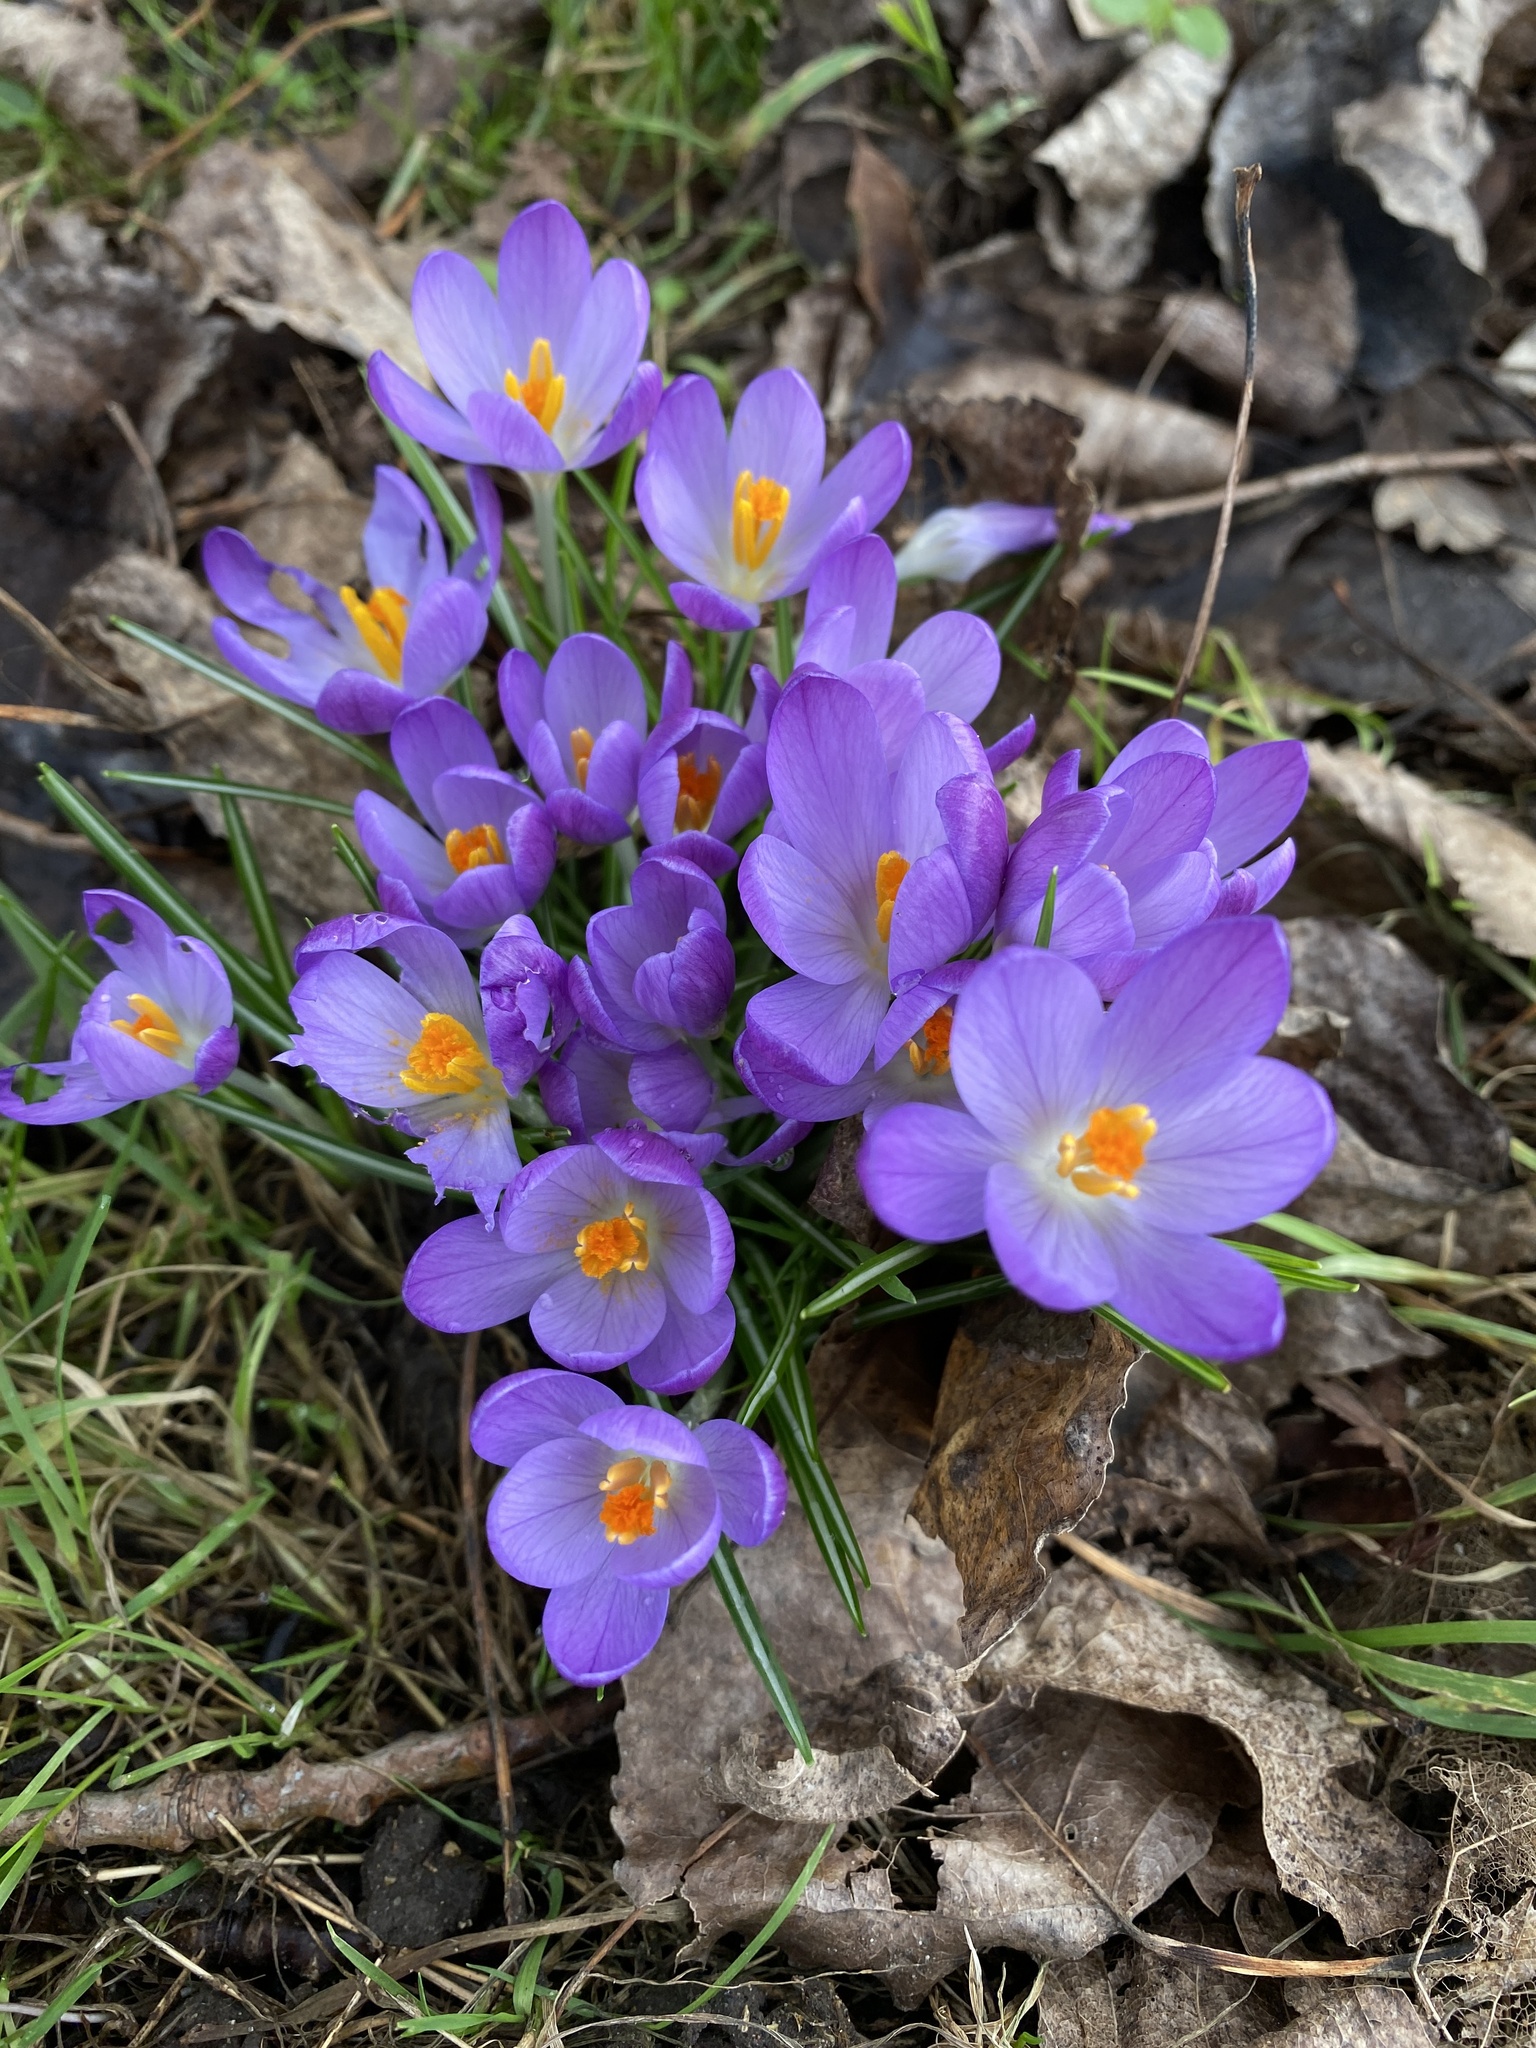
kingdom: Plantae
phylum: Tracheophyta
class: Liliopsida
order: Asparagales
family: Iridaceae
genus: Crocus
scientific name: Crocus tommasinianus
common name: Early crocus
